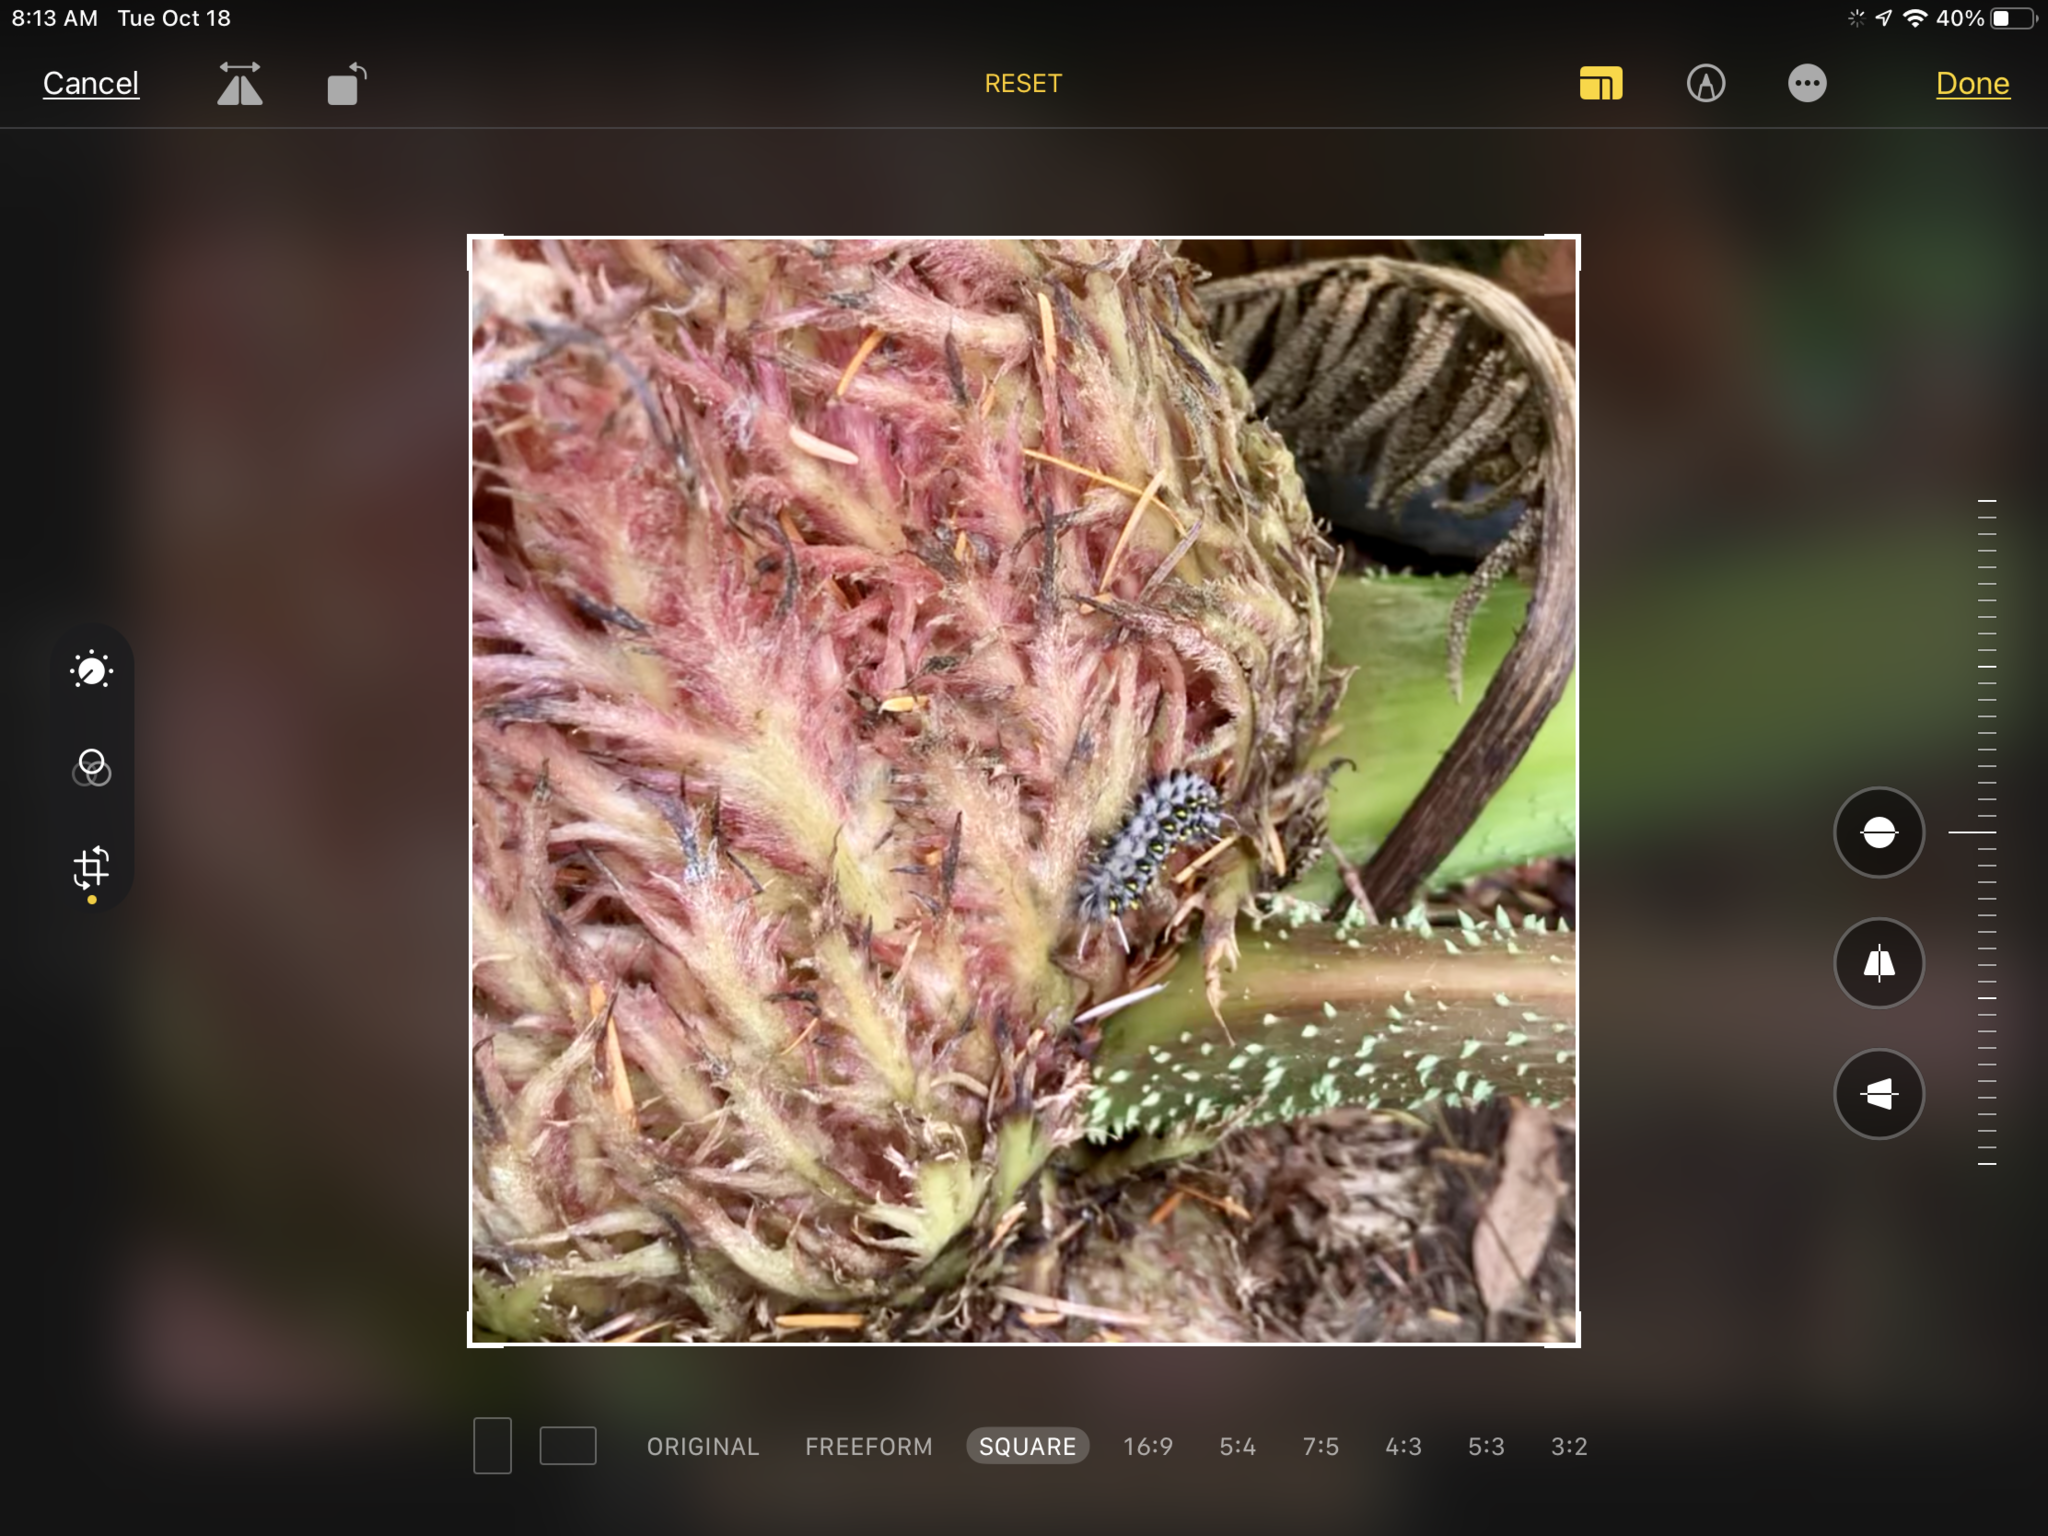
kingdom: Animalia
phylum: Arthropoda
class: Insecta
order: Lepidoptera
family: Erebidae
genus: Lophocampa
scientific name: Lophocampa roseata
